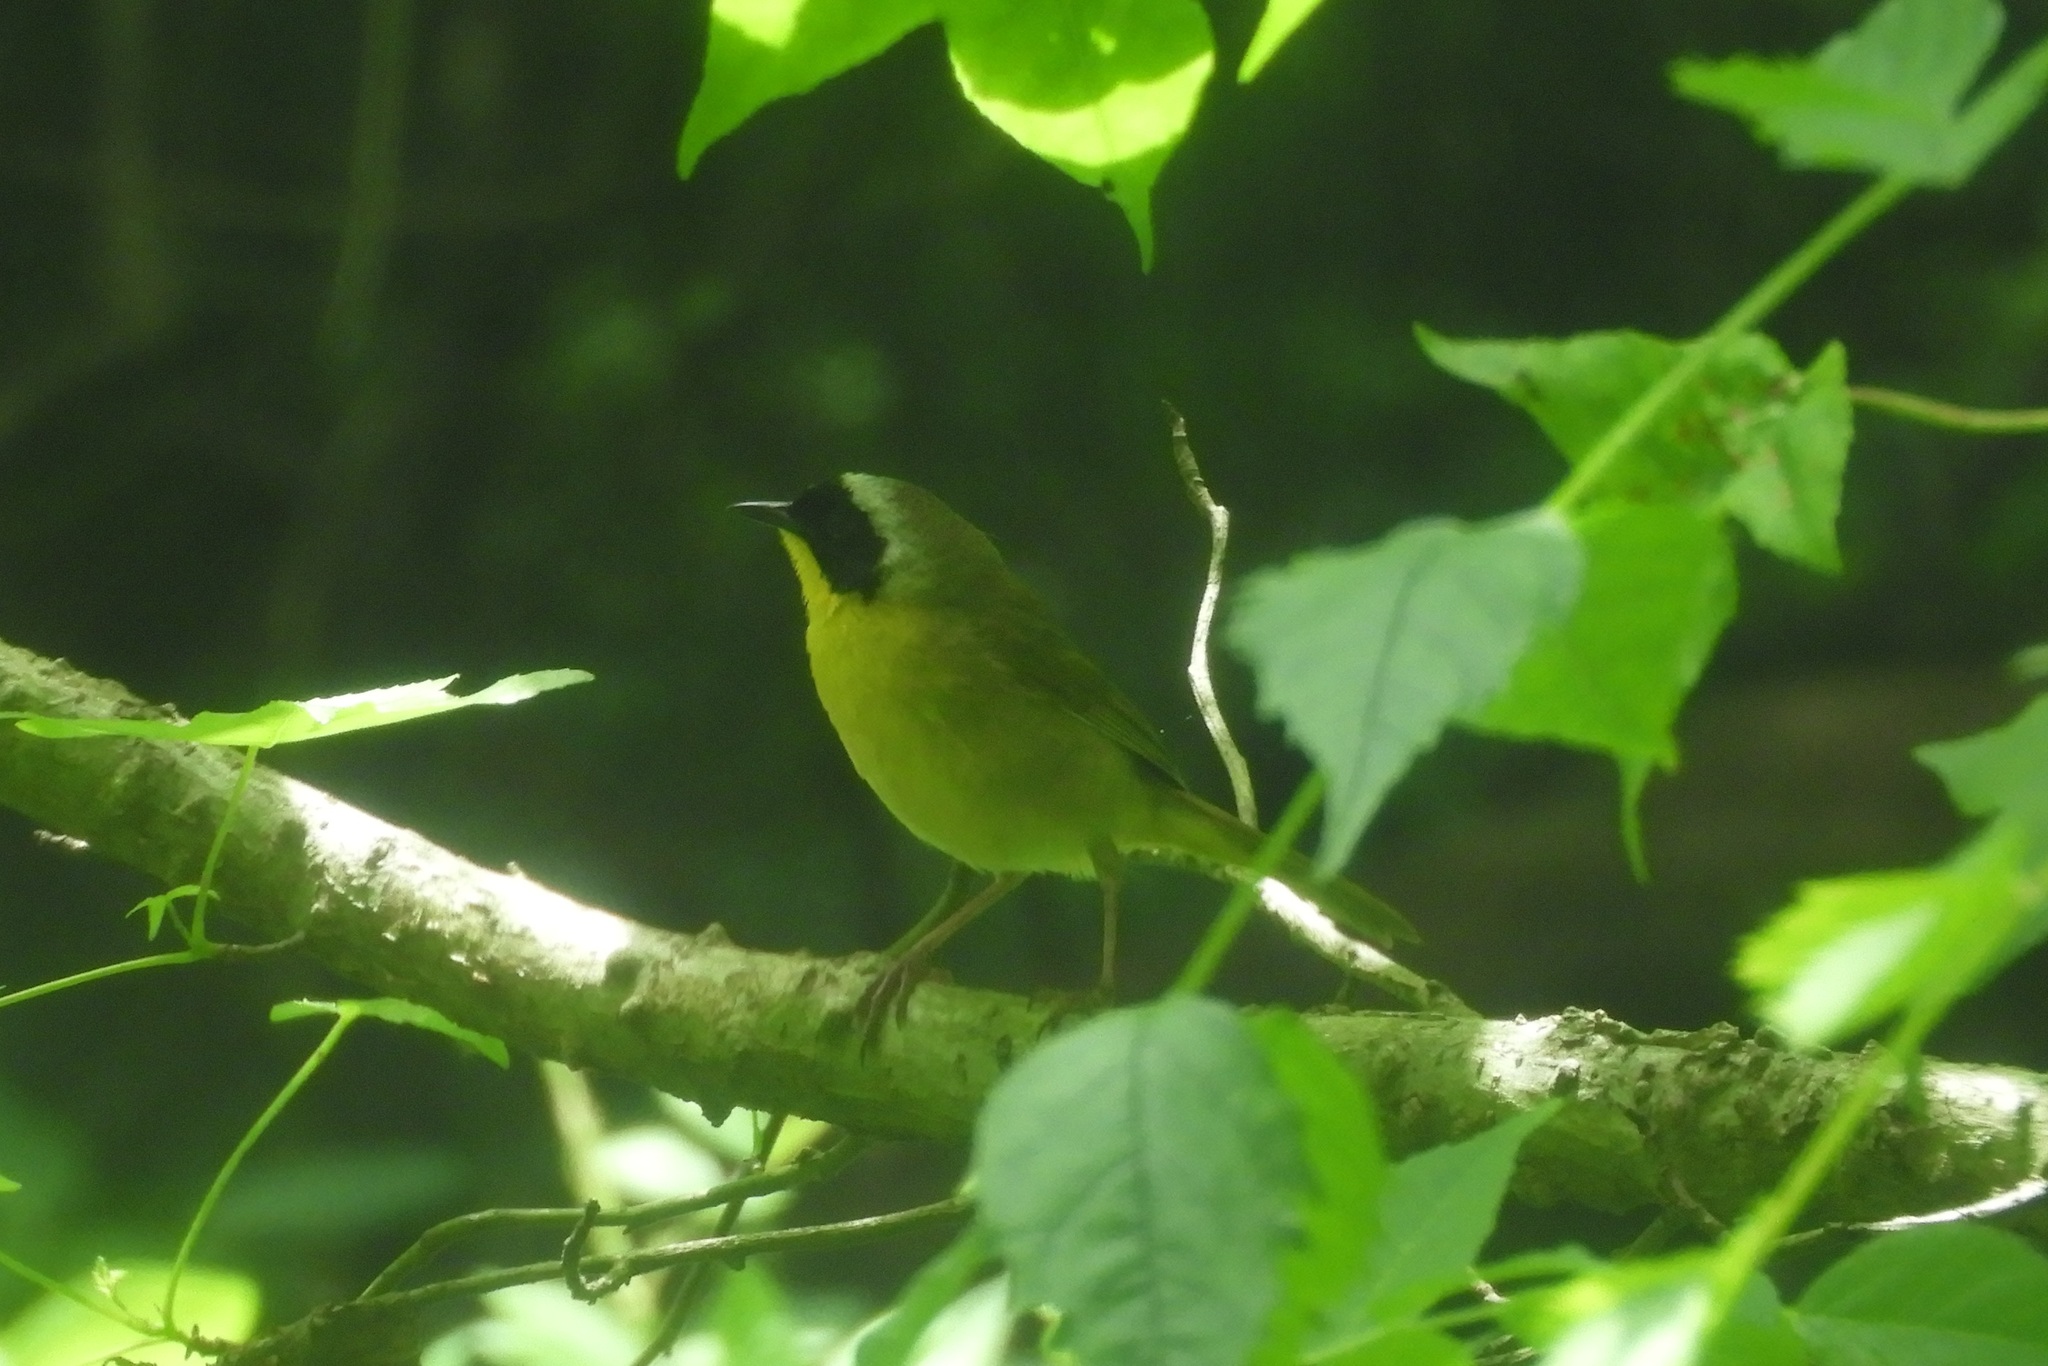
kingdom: Animalia
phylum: Chordata
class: Aves
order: Passeriformes
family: Parulidae
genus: Geothlypis
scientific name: Geothlypis trichas
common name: Common yellowthroat
